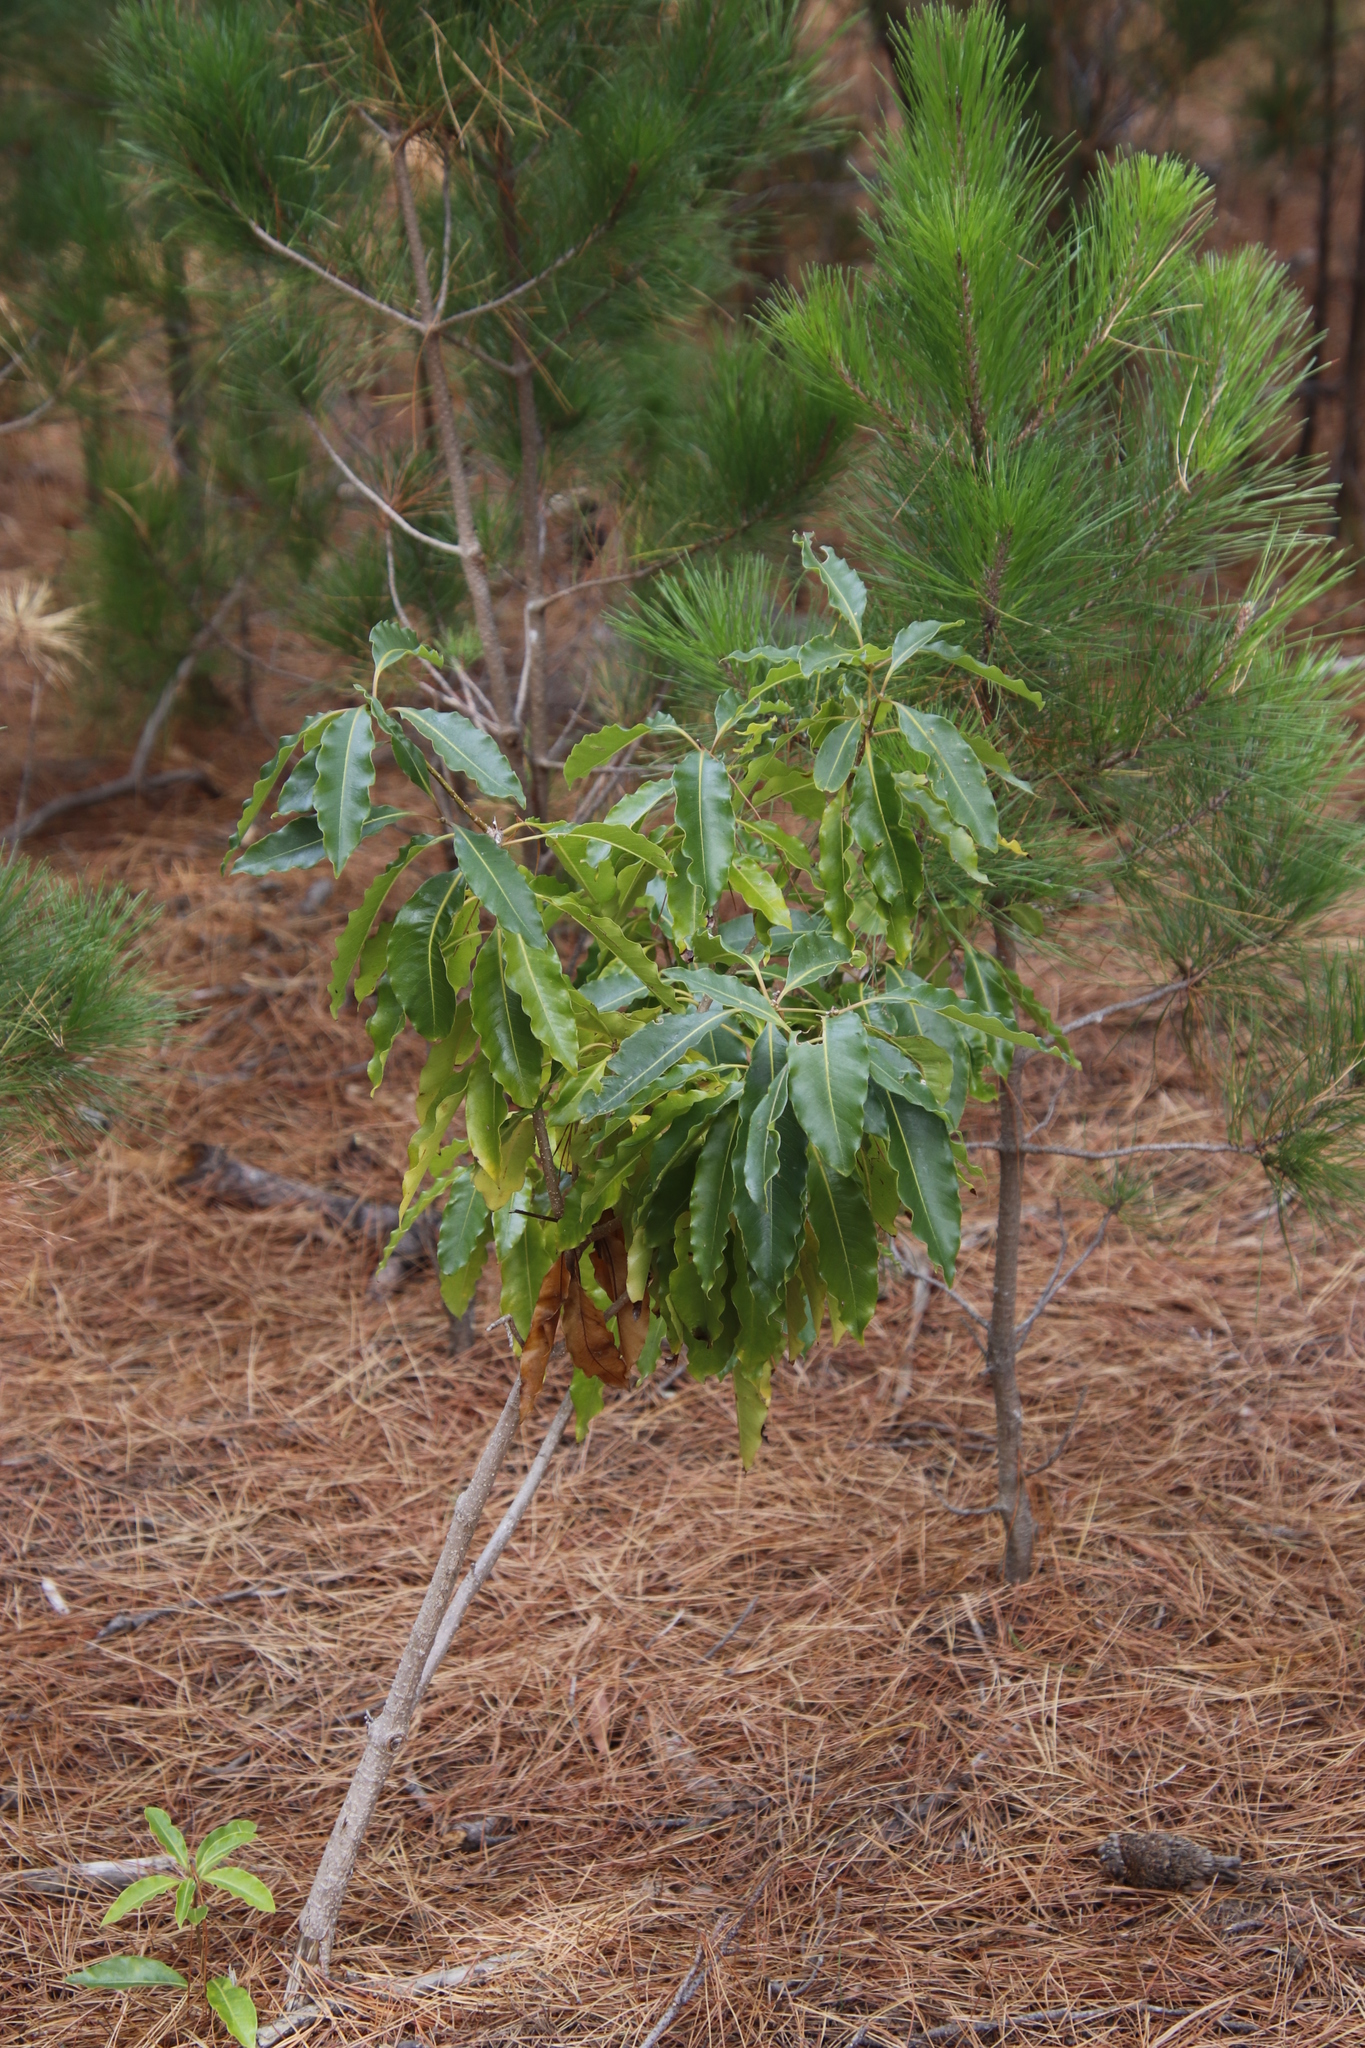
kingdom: Plantae
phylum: Tracheophyta
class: Magnoliopsida
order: Apiales
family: Pittosporaceae
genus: Pittosporum
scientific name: Pittosporum undulatum
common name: Australian cheesewood
